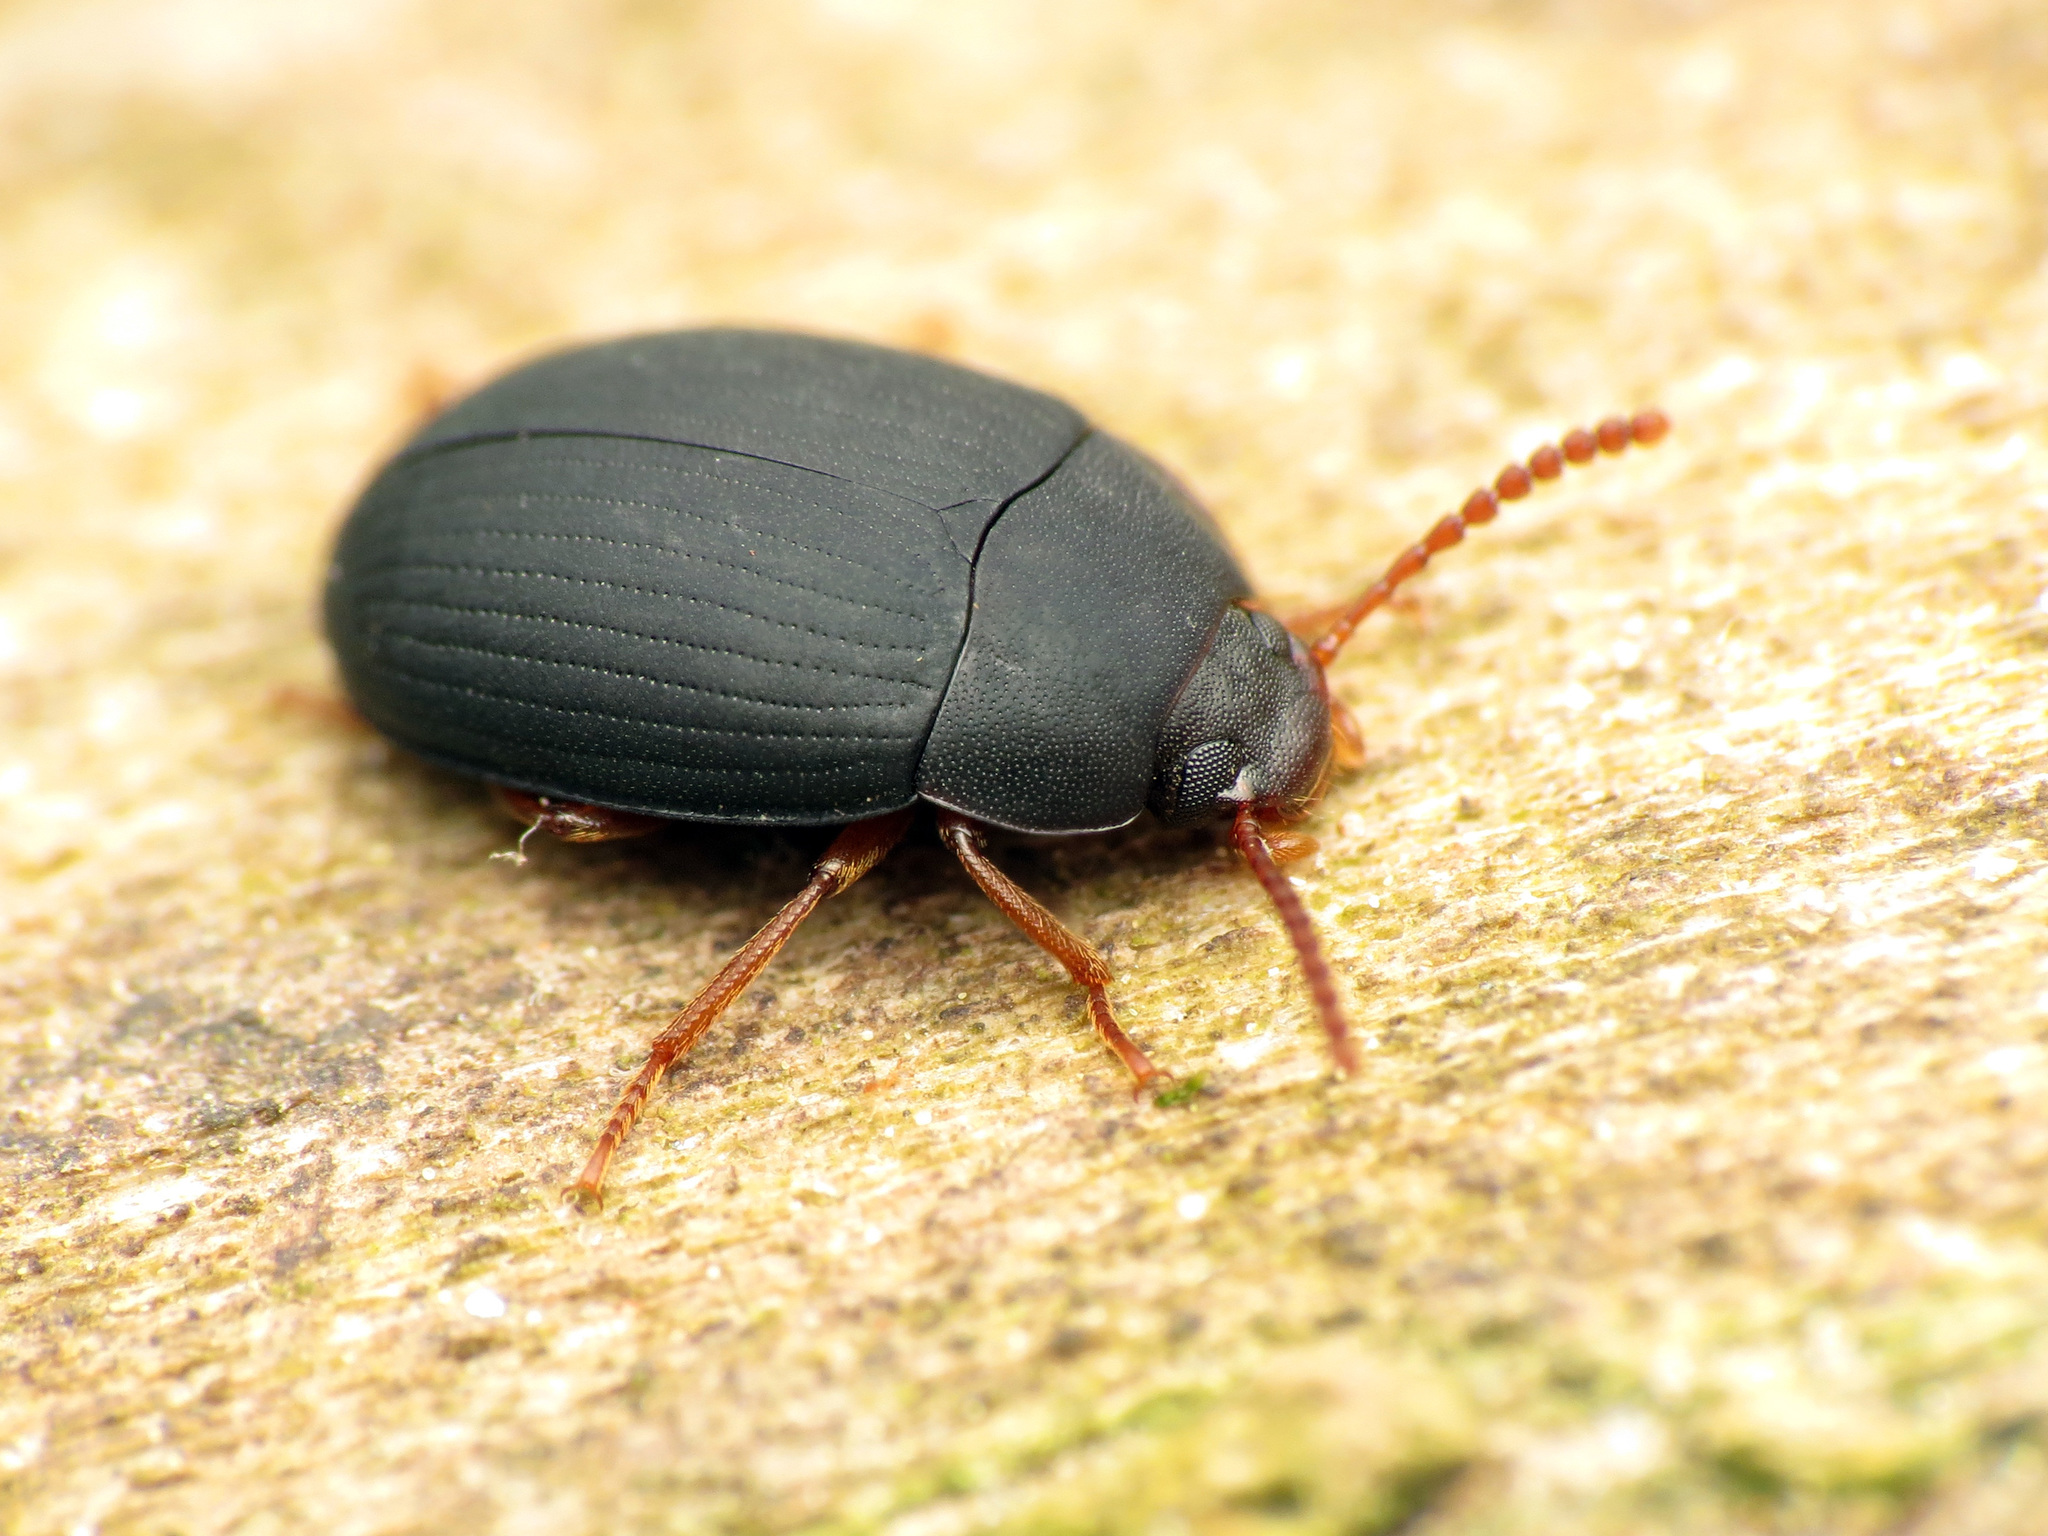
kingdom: Animalia
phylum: Arthropoda
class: Insecta
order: Coleoptera
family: Tenebrionidae
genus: Platydema
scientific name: Platydema ruficornis
